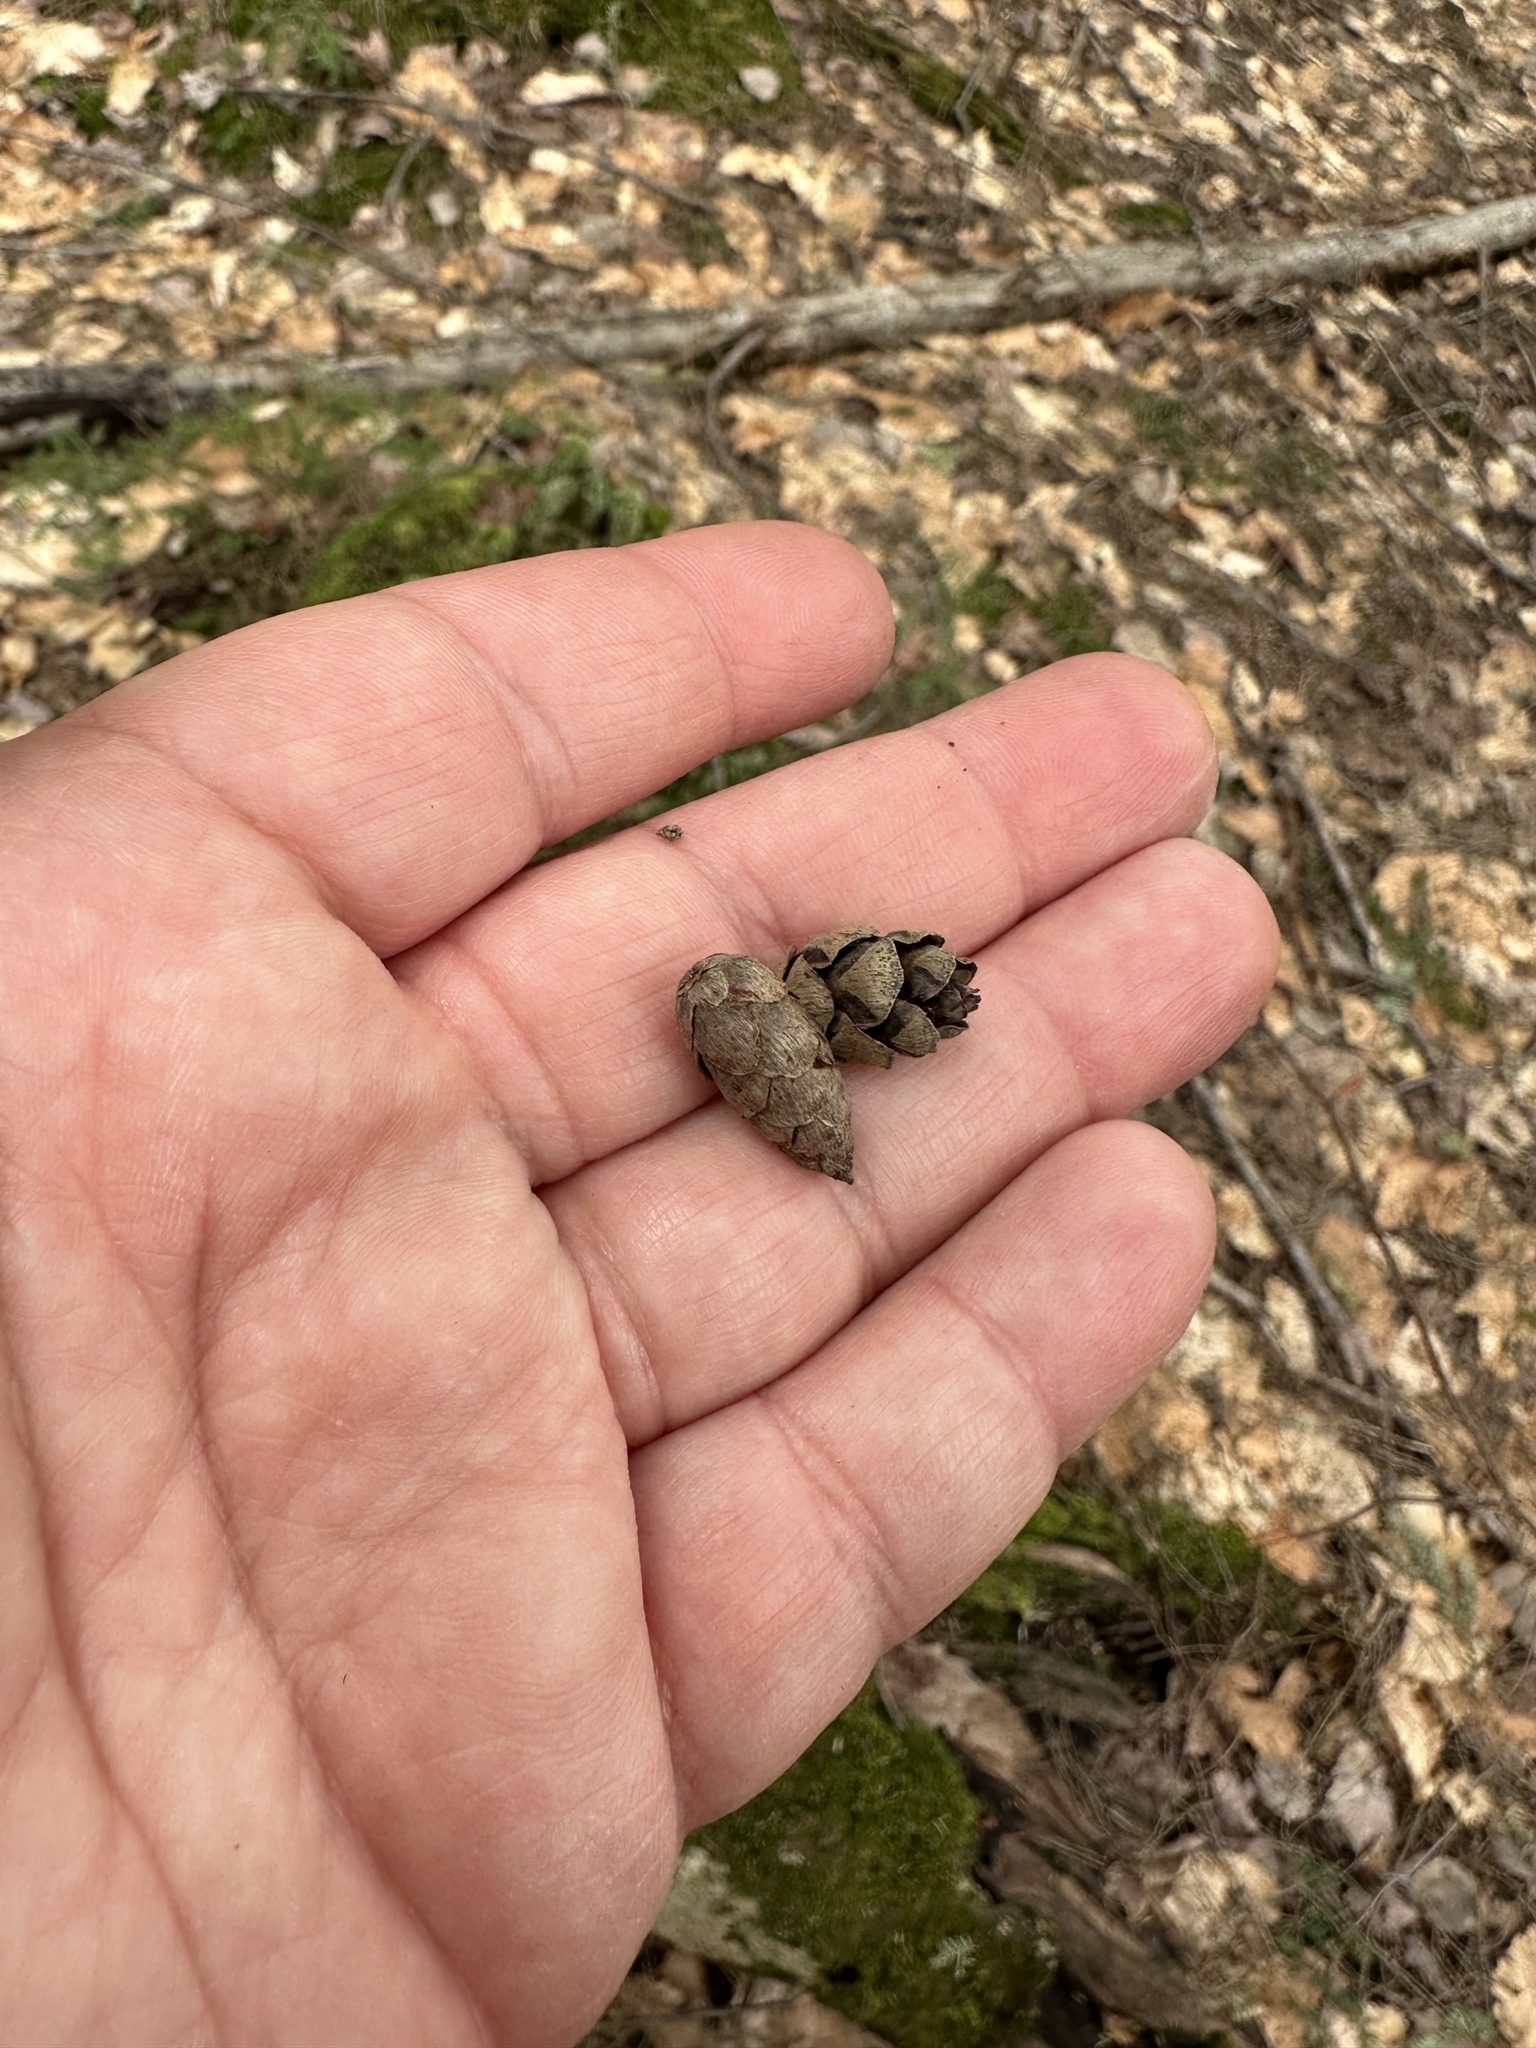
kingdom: Plantae
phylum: Tracheophyta
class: Pinopsida
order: Pinales
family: Pinaceae
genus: Tsuga
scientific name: Tsuga canadensis
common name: Eastern hemlock
